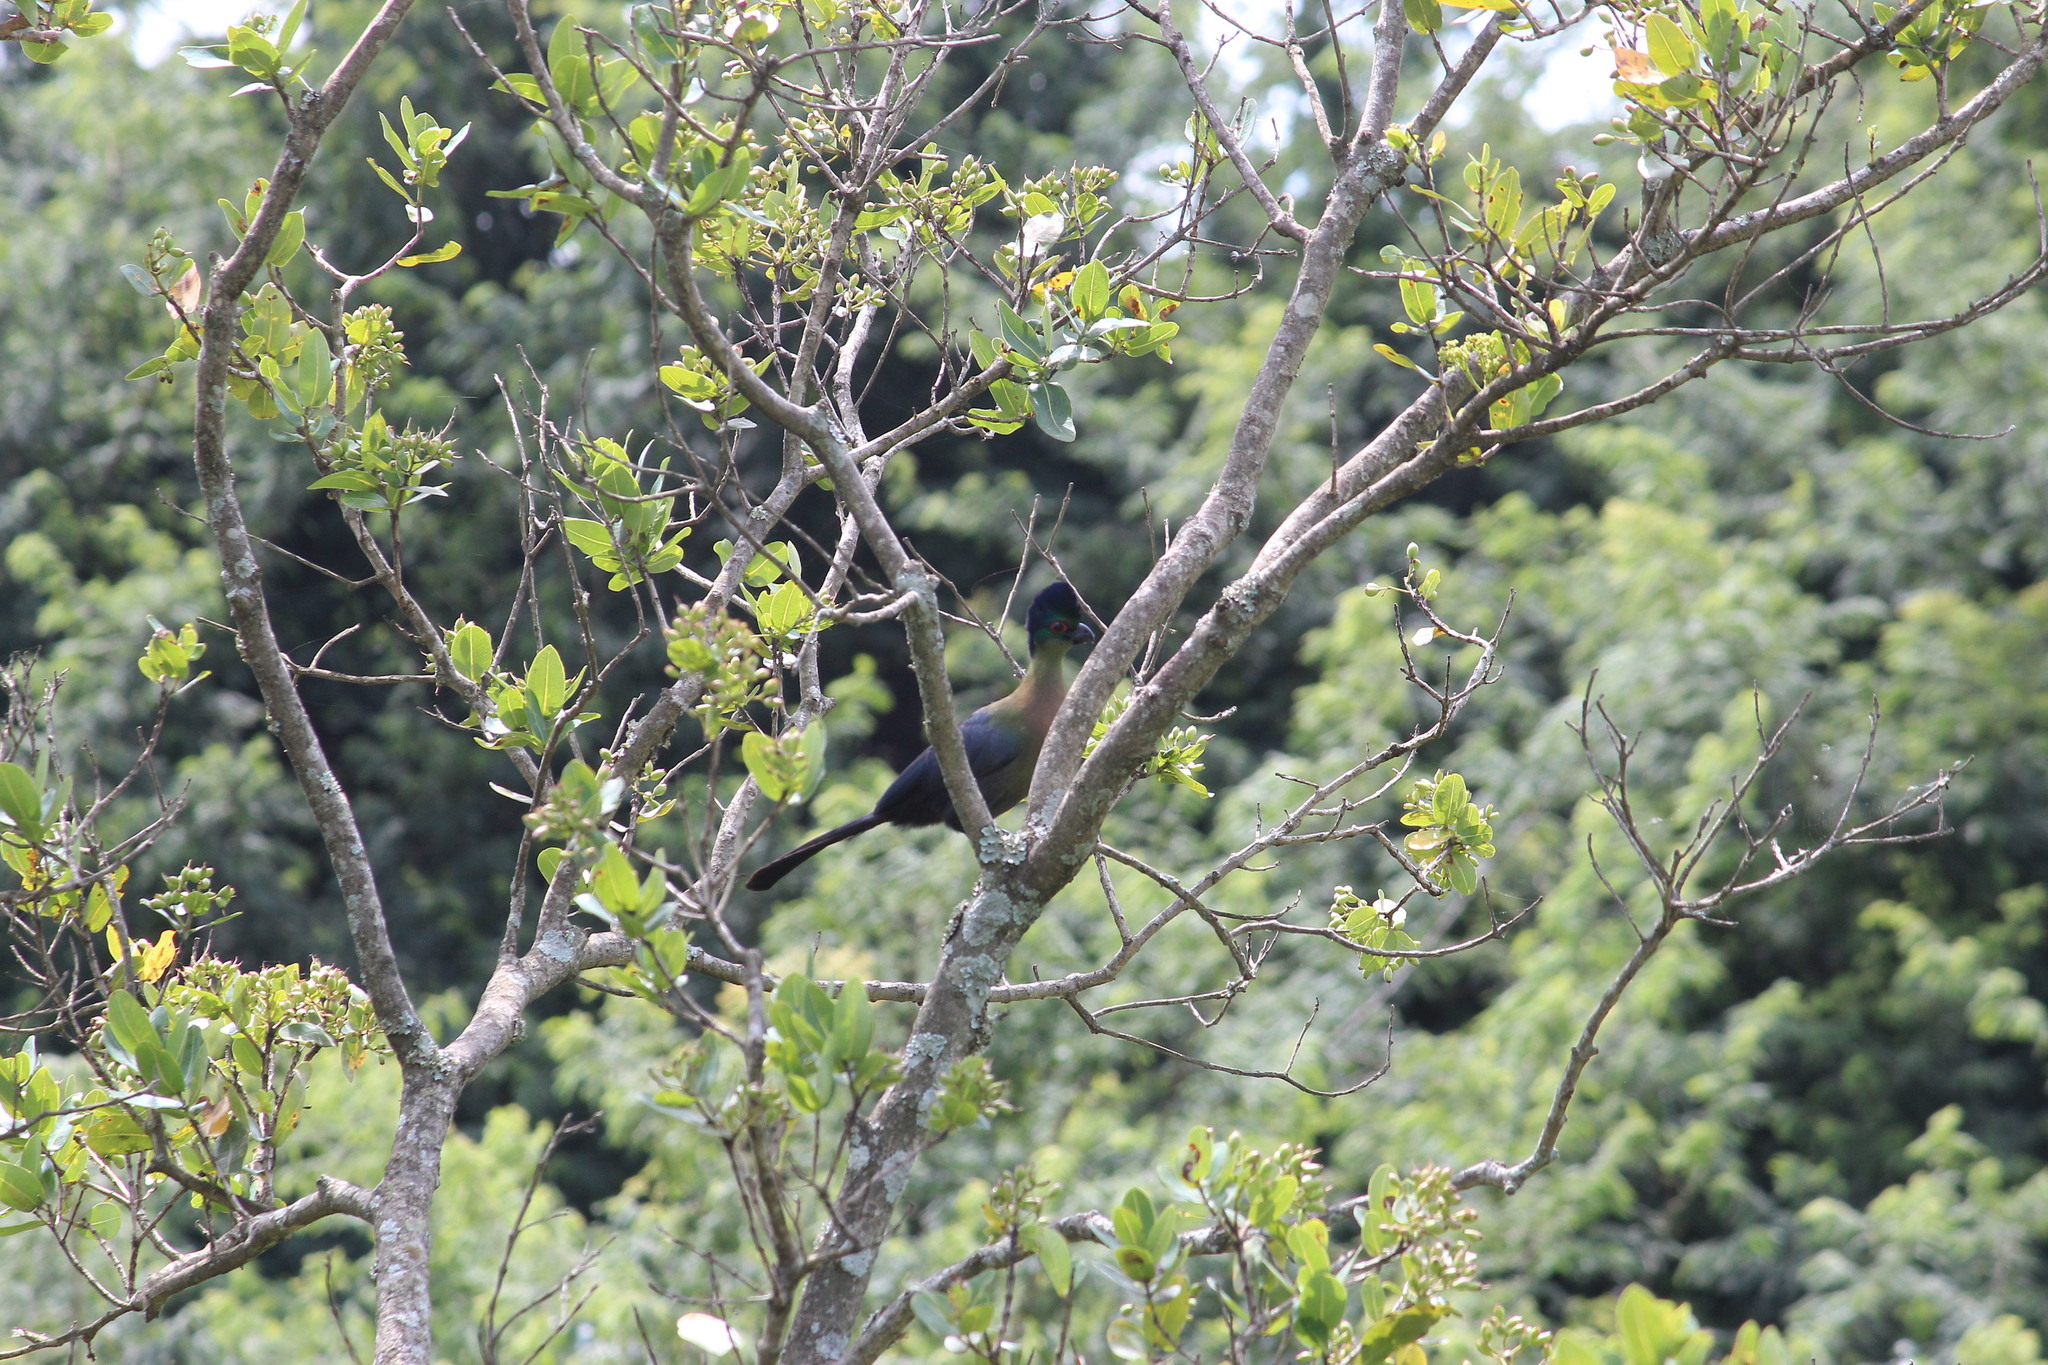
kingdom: Animalia
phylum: Chordata
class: Aves
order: Musophagiformes
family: Musophagidae
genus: Tauraco
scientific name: Tauraco porphyreolophus
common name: Purple-crested turaco
